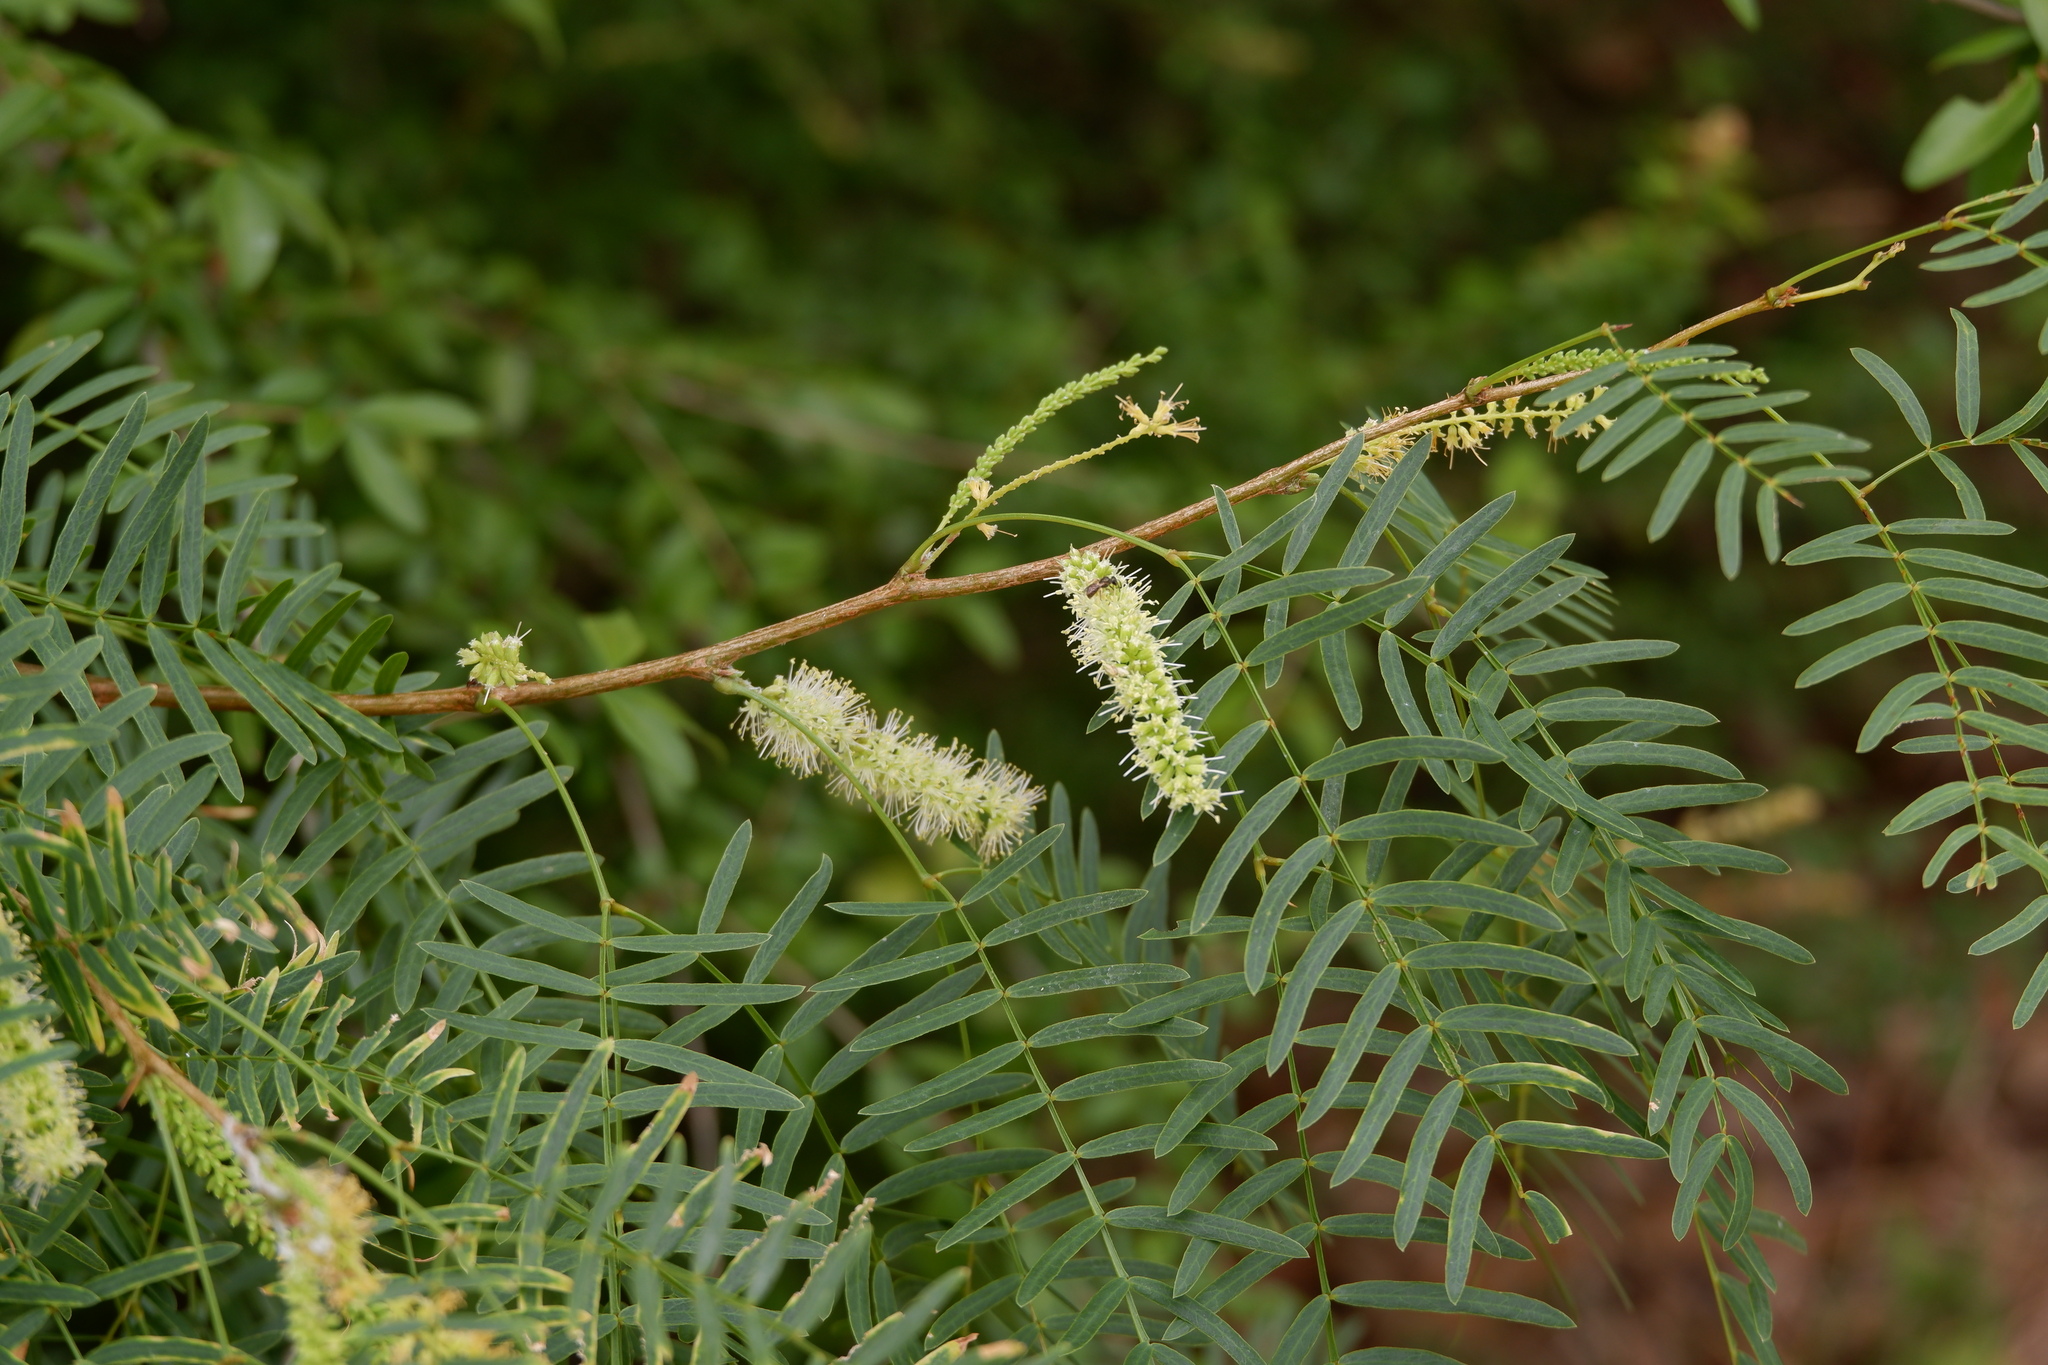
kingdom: Plantae
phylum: Tracheophyta
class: Magnoliopsida
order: Fabales
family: Fabaceae
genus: Prosopis
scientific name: Prosopis glandulosa
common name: Honey mesquite
